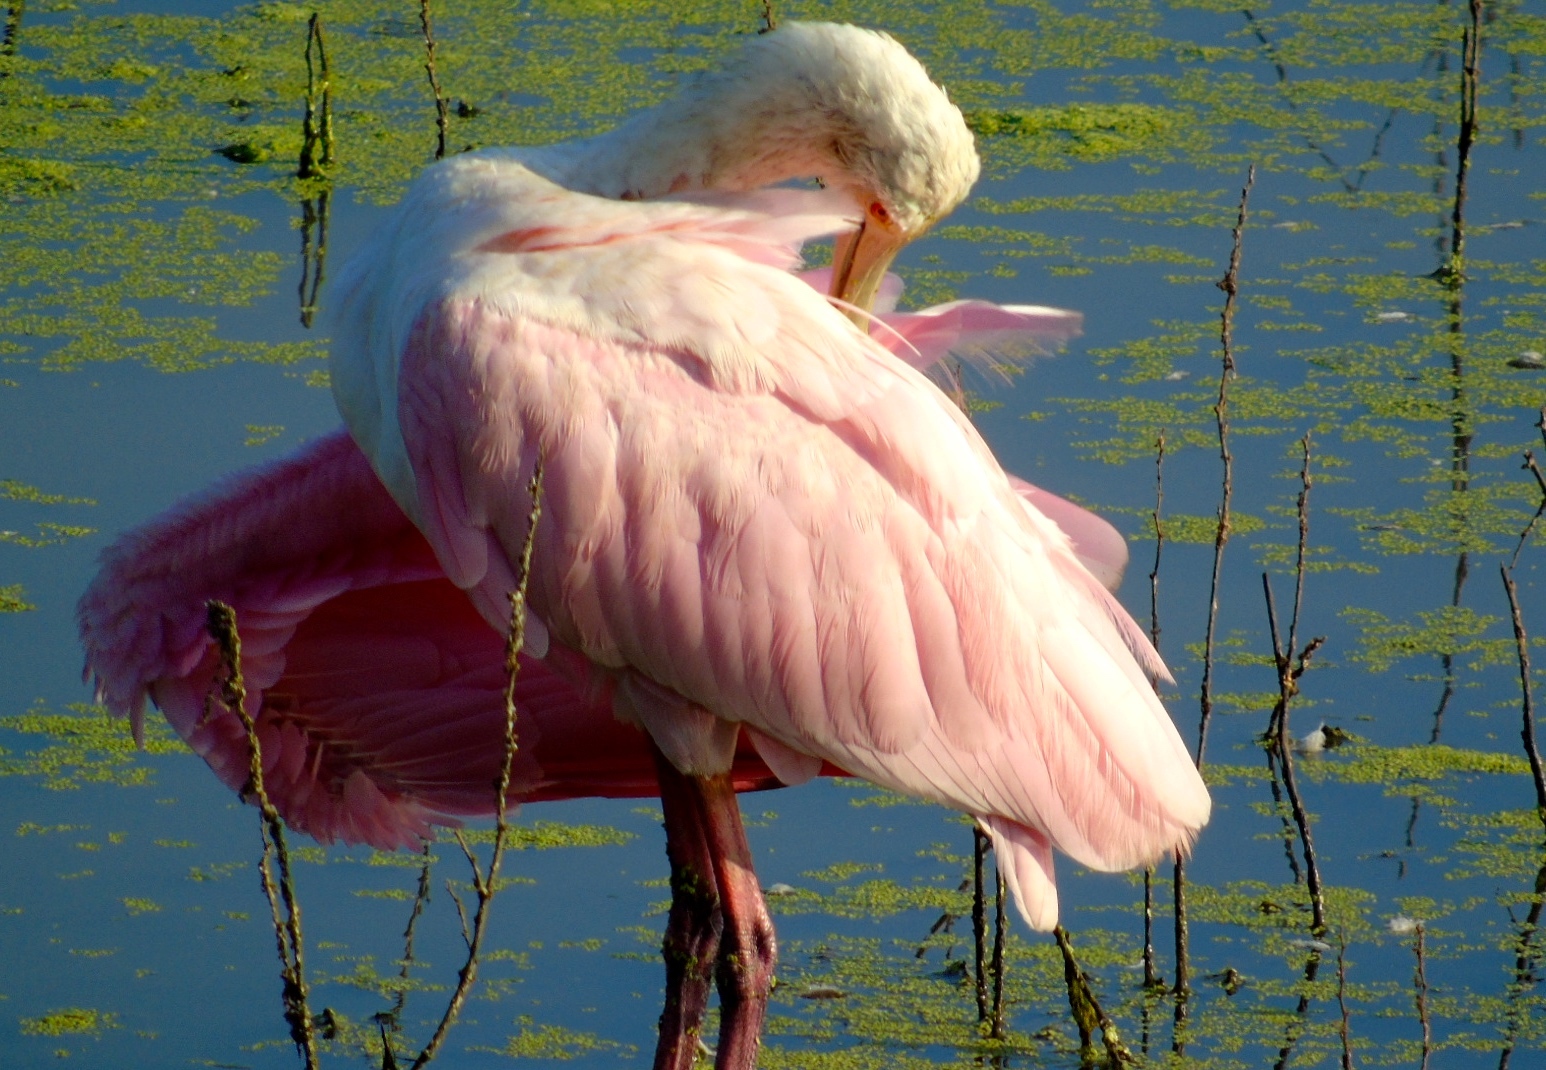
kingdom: Animalia
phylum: Chordata
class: Aves
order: Pelecaniformes
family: Threskiornithidae
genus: Platalea
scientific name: Platalea ajaja
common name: Roseate spoonbill
